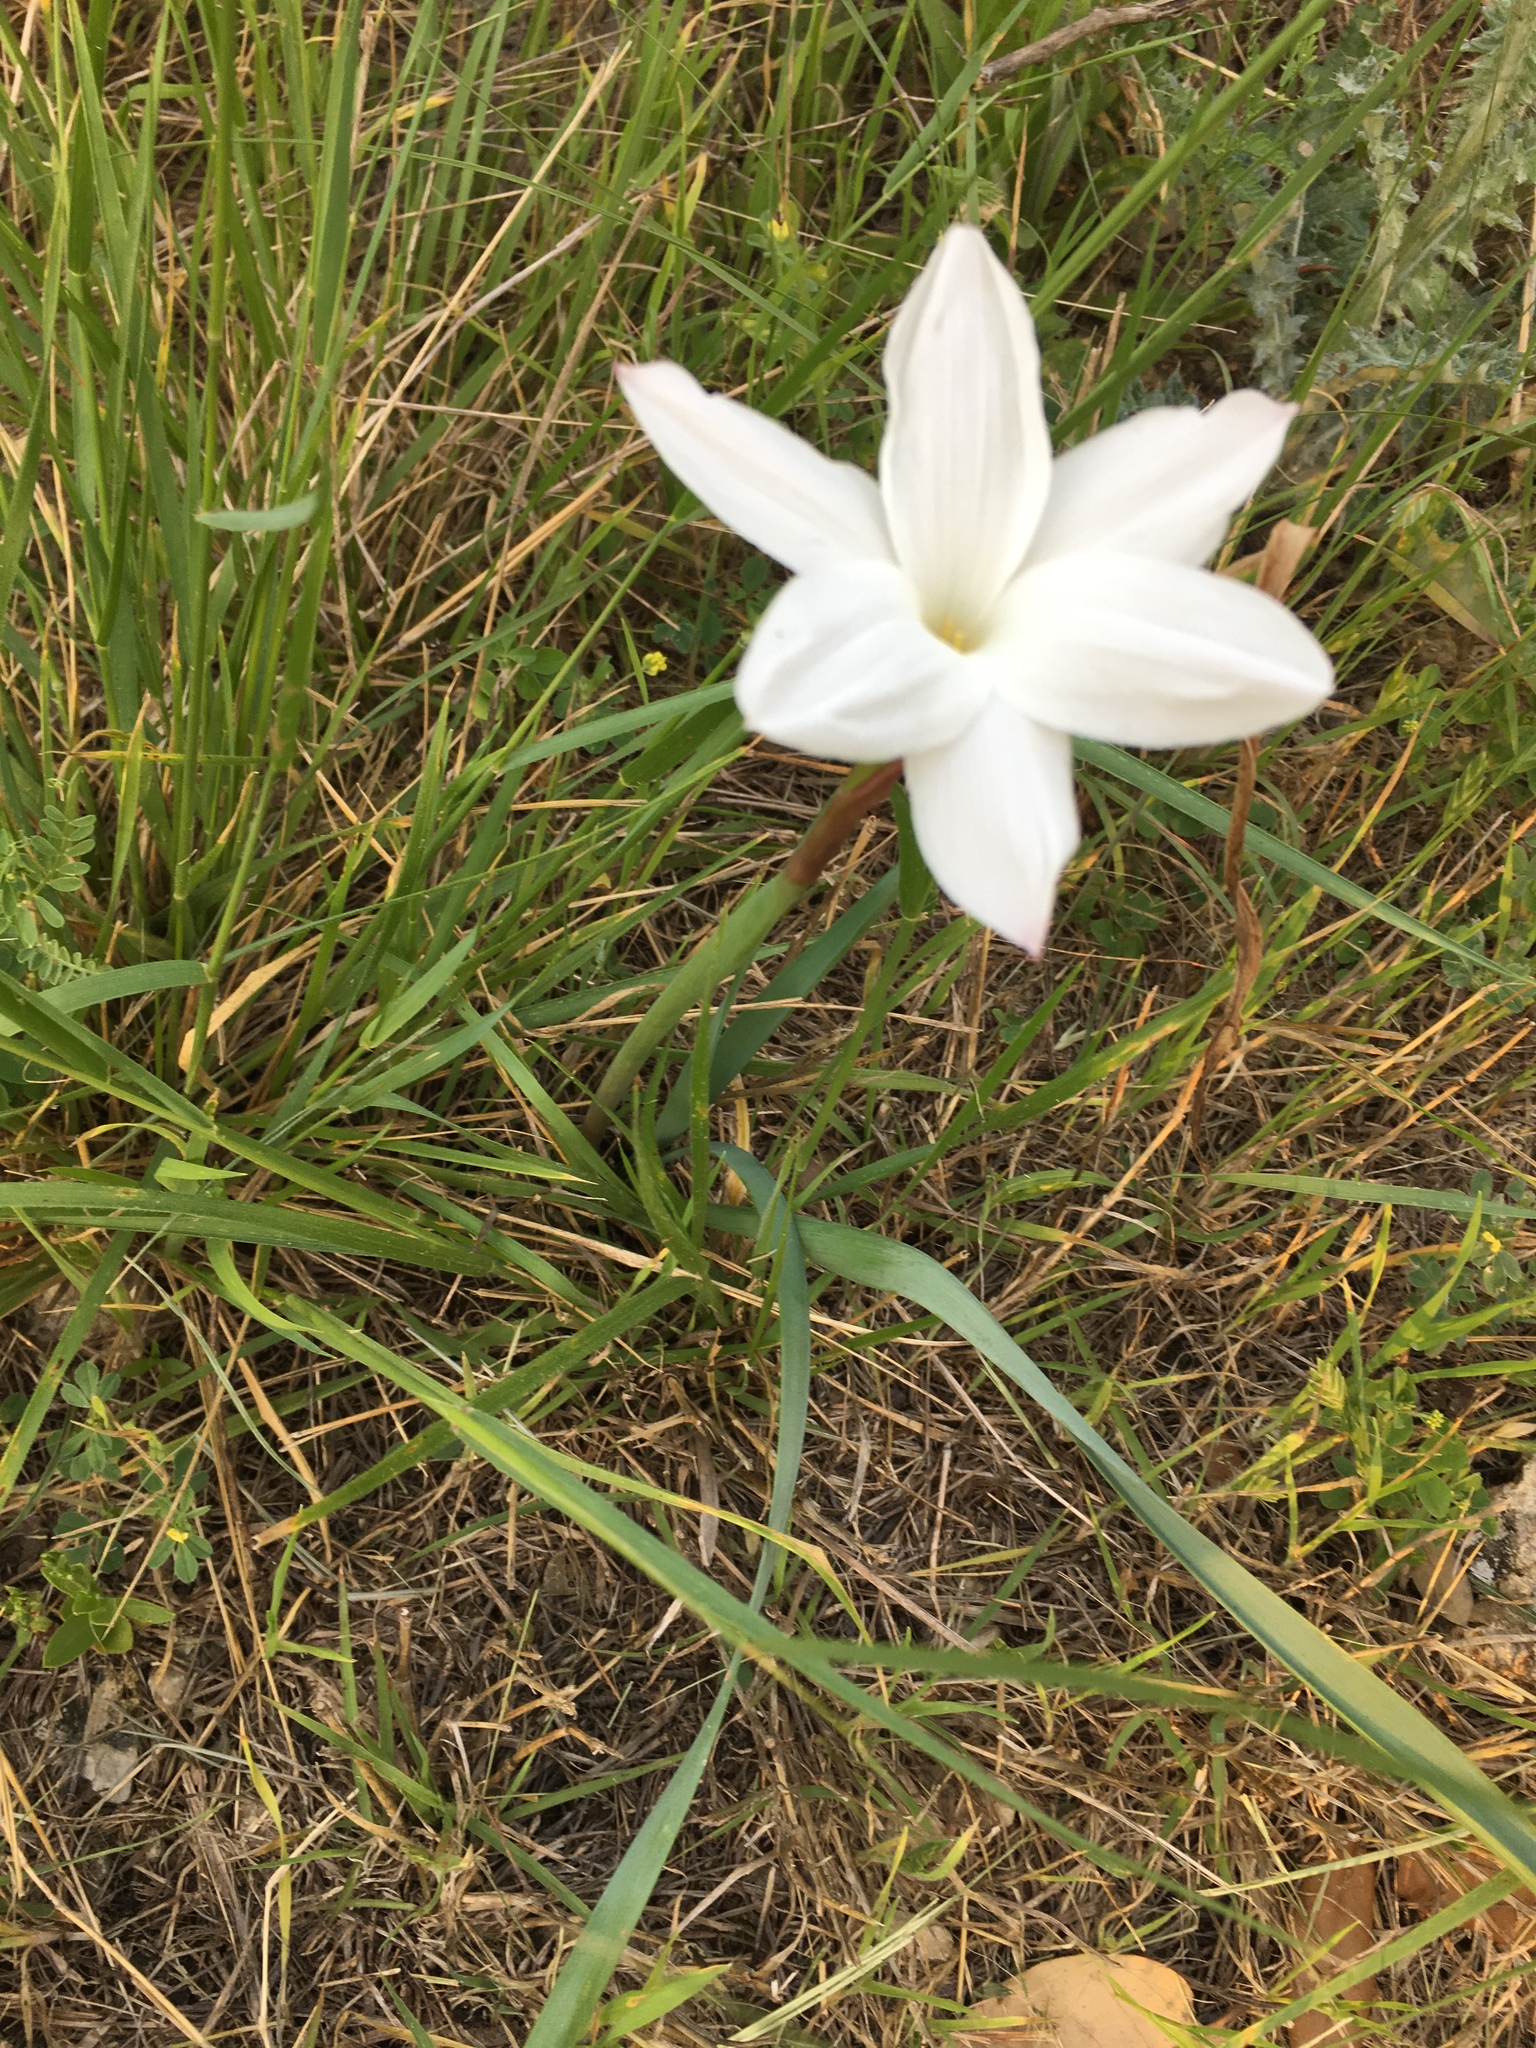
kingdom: Plantae
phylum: Tracheophyta
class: Liliopsida
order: Asparagales
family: Amaryllidaceae
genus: Zephyranthes
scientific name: Zephyranthes drummondii
